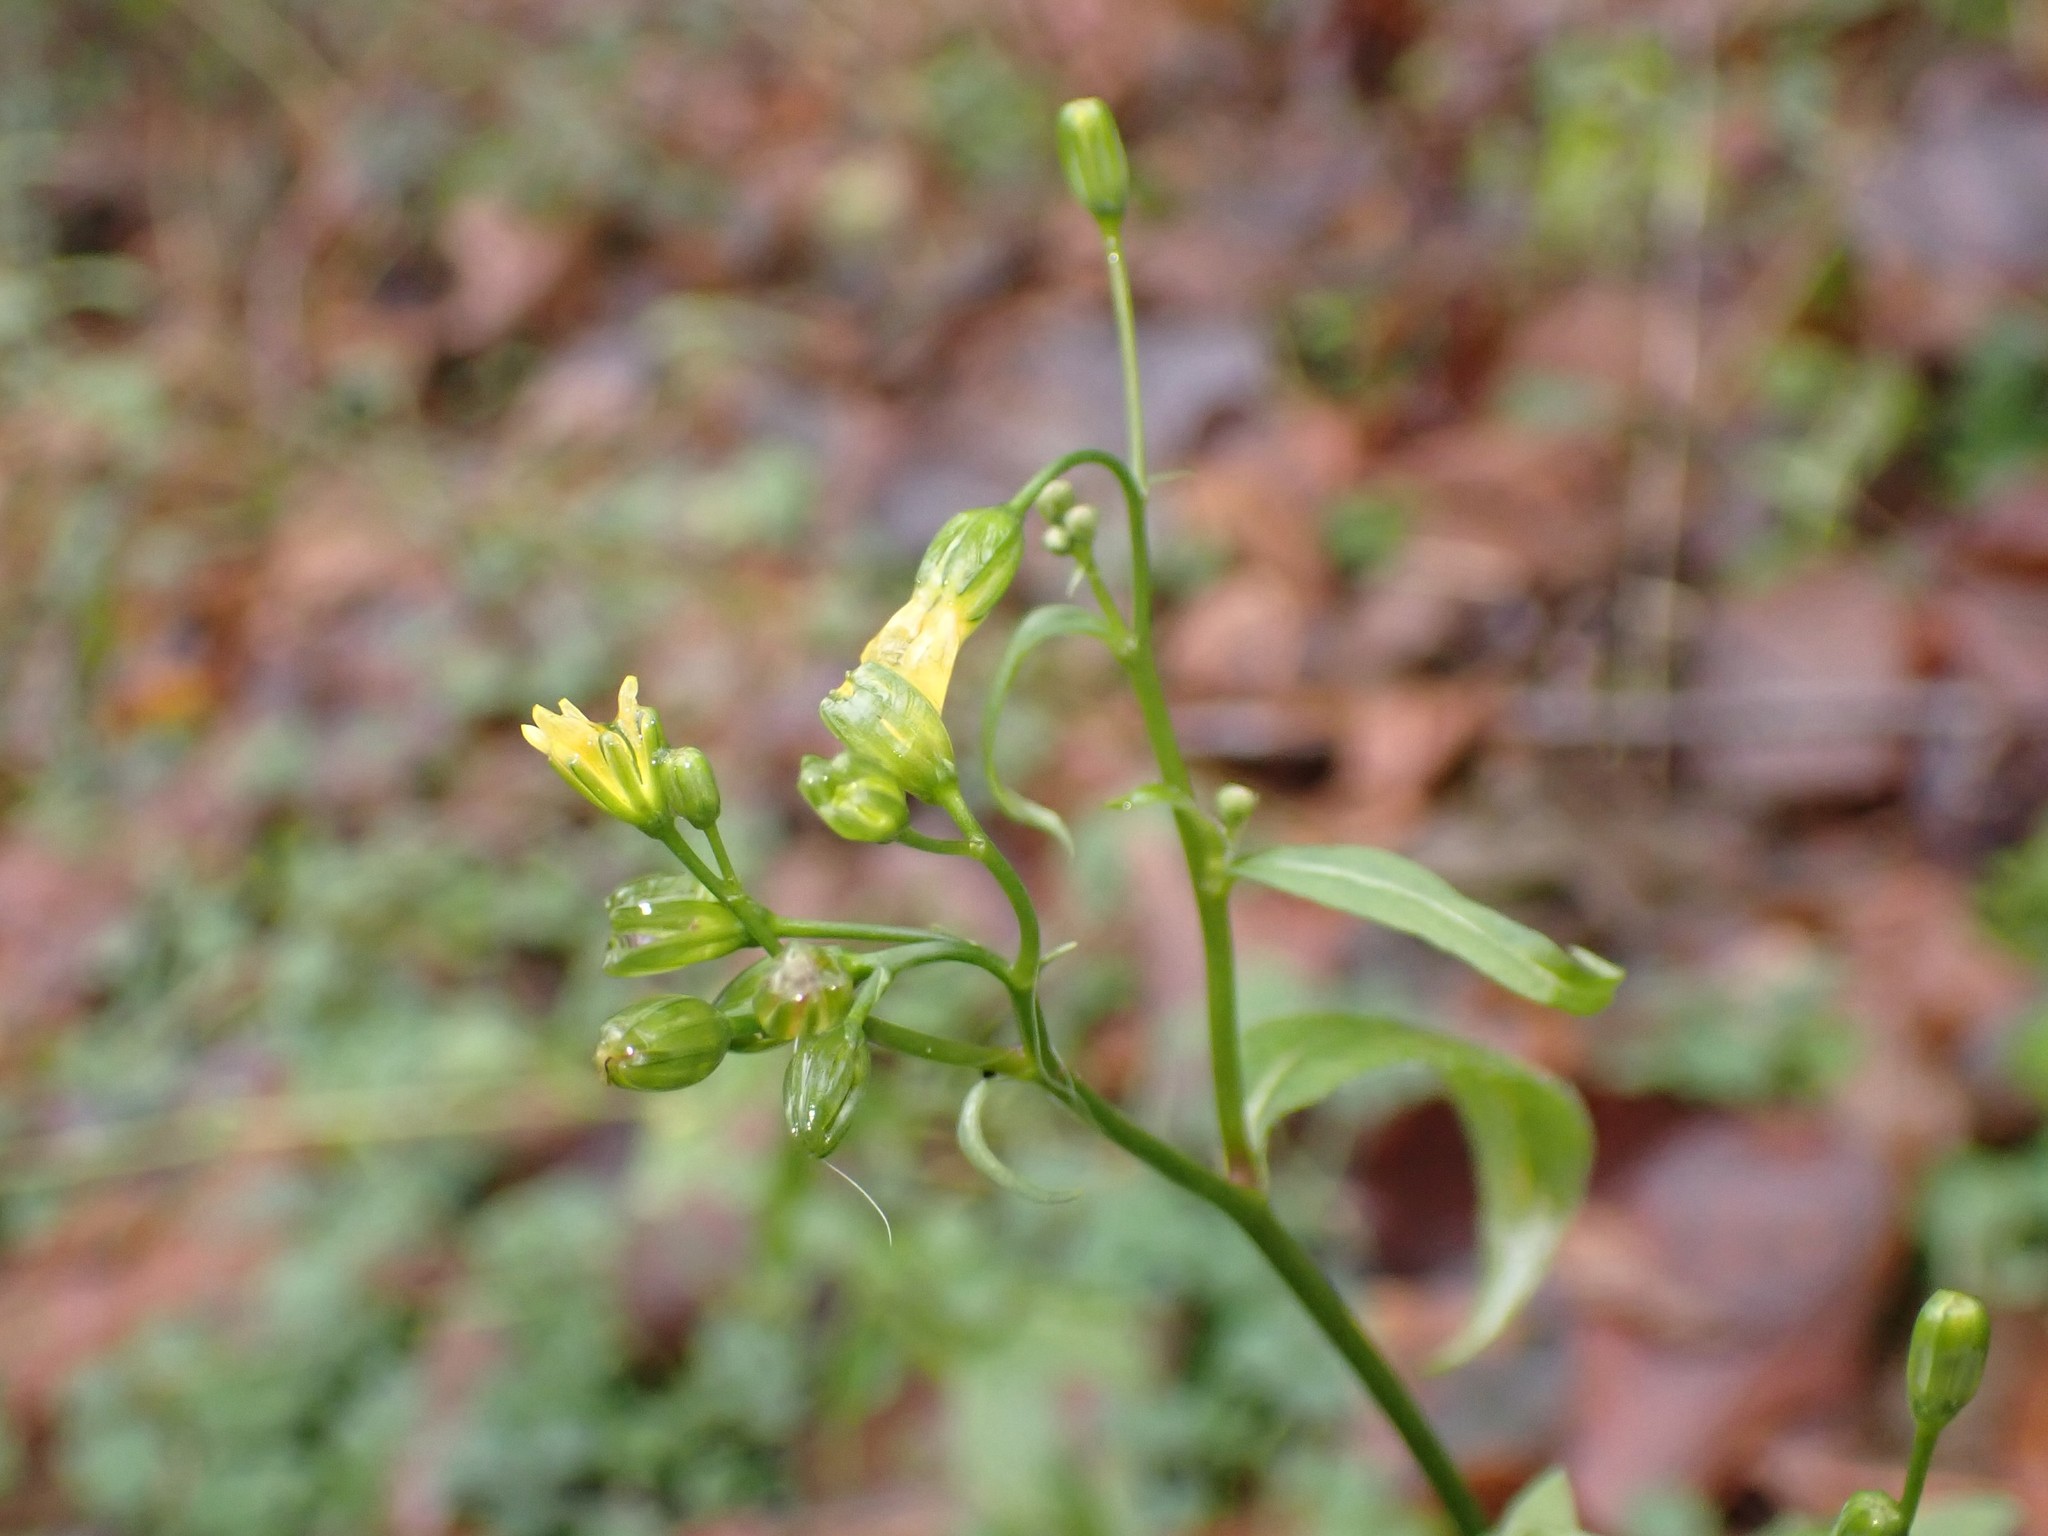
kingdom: Plantae
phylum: Tracheophyta
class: Magnoliopsida
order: Asterales
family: Asteraceae
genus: Lapsana
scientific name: Lapsana communis
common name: Nipplewort
